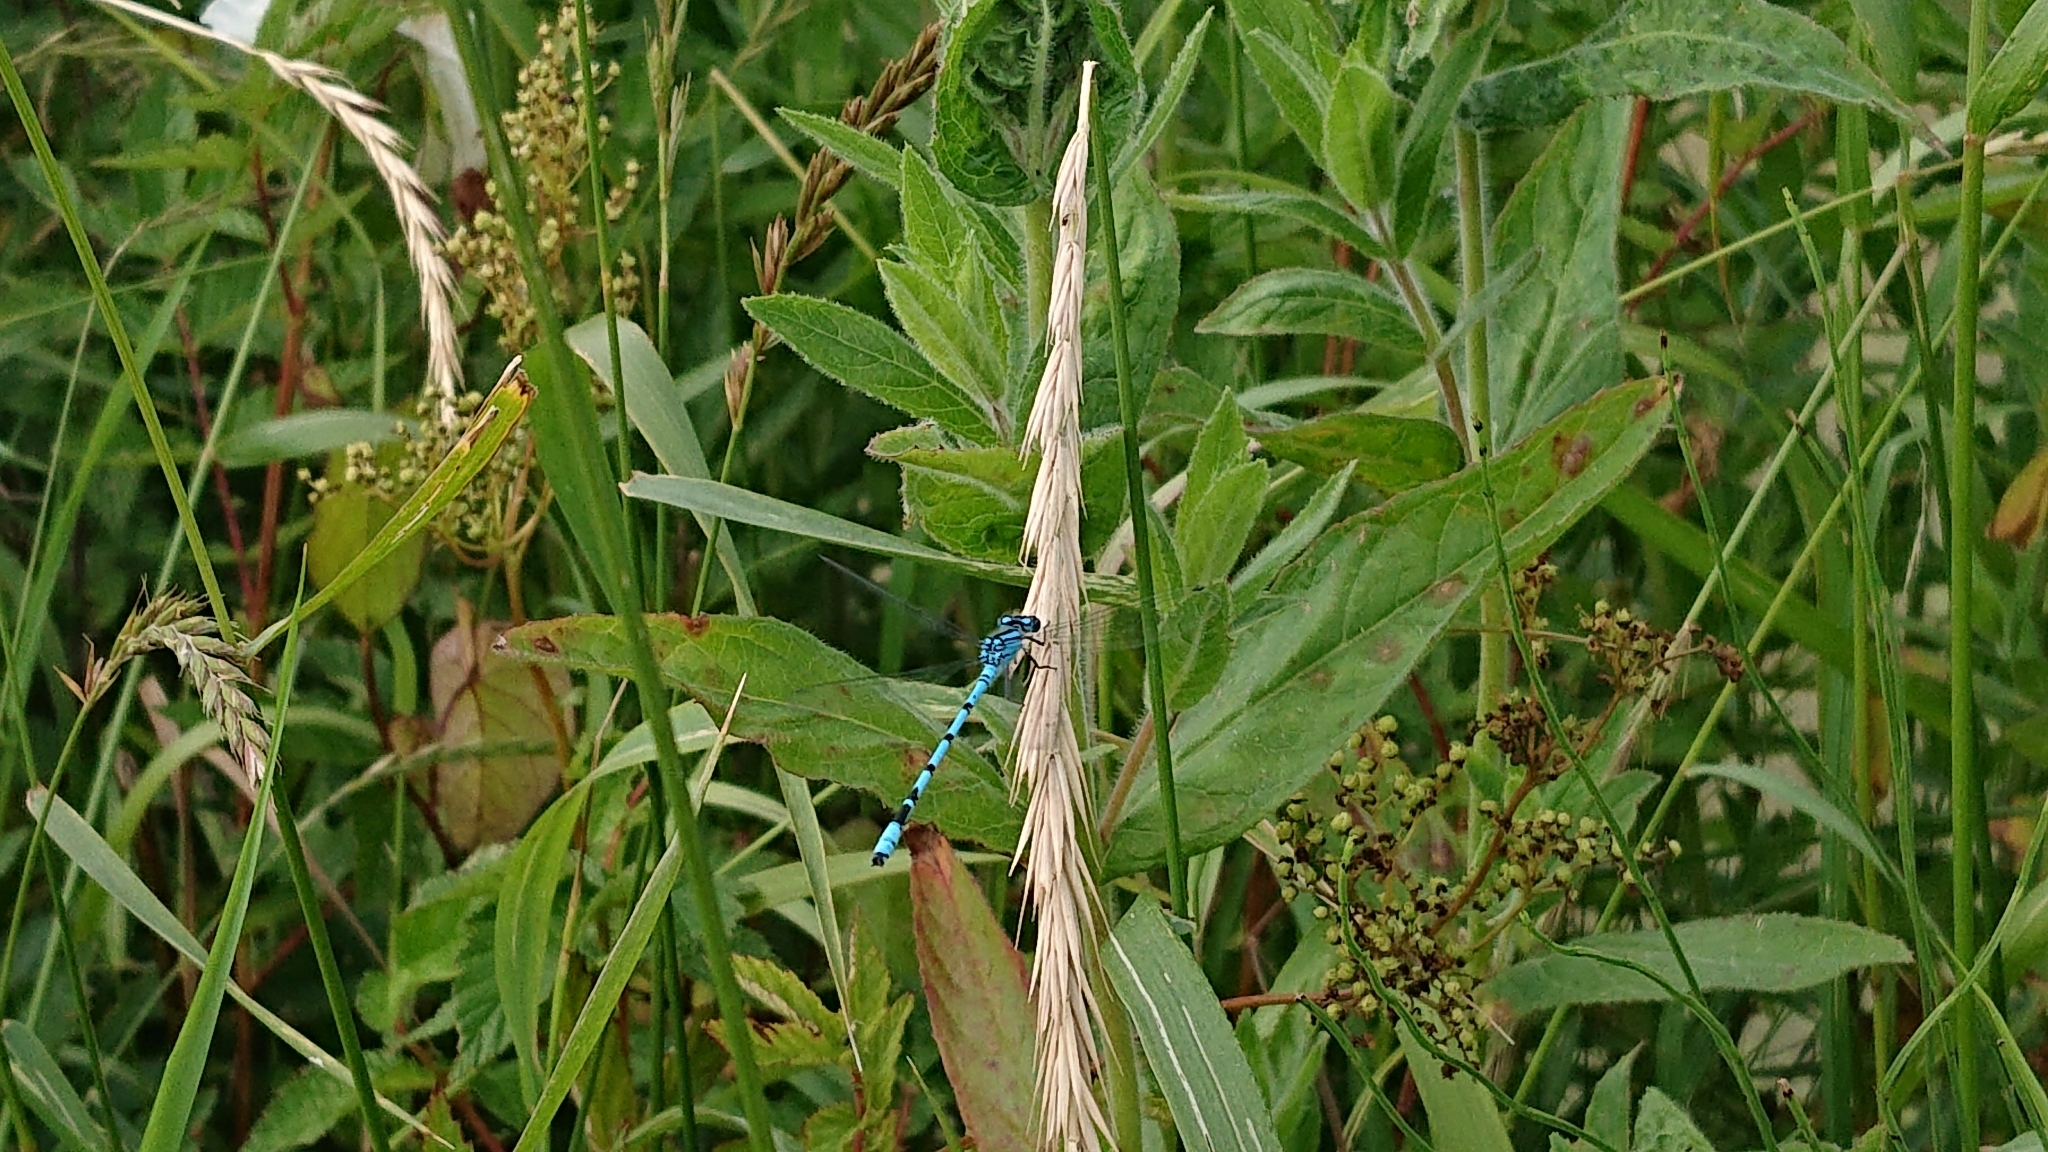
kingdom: Animalia
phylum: Arthropoda
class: Insecta
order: Odonata
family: Coenagrionidae
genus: Enallagma
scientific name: Enallagma cyathigerum
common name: Common blue damselfly
